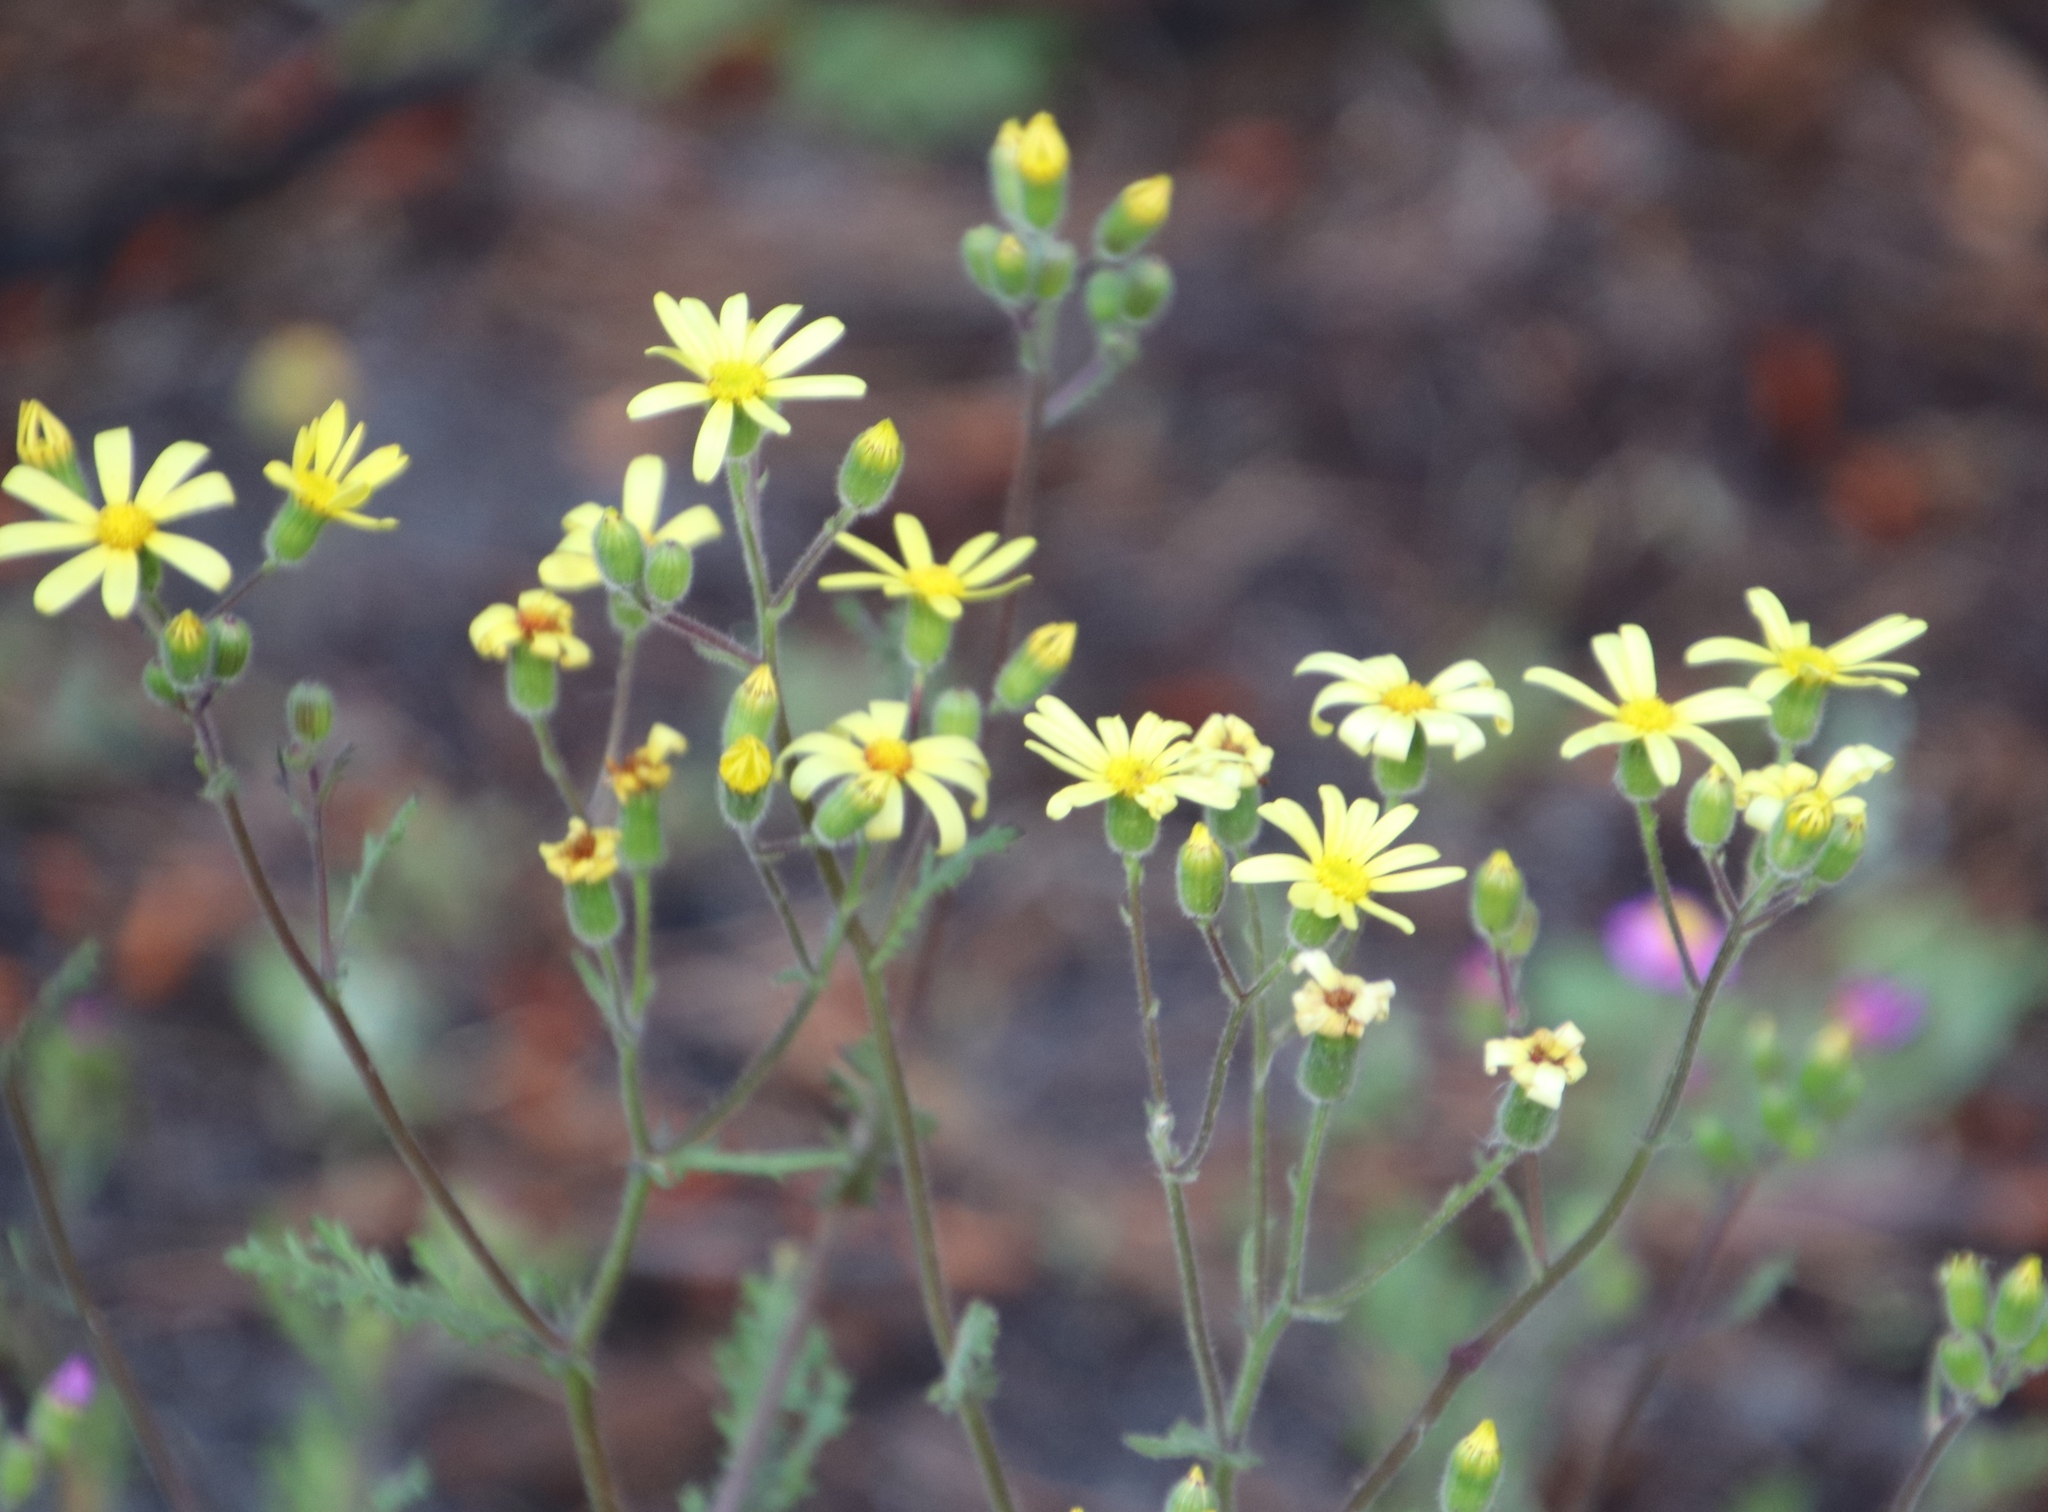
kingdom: Plantae
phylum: Tracheophyta
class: Magnoliopsida
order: Asterales
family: Asteraceae
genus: Senecio
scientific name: Senecio arenarius
